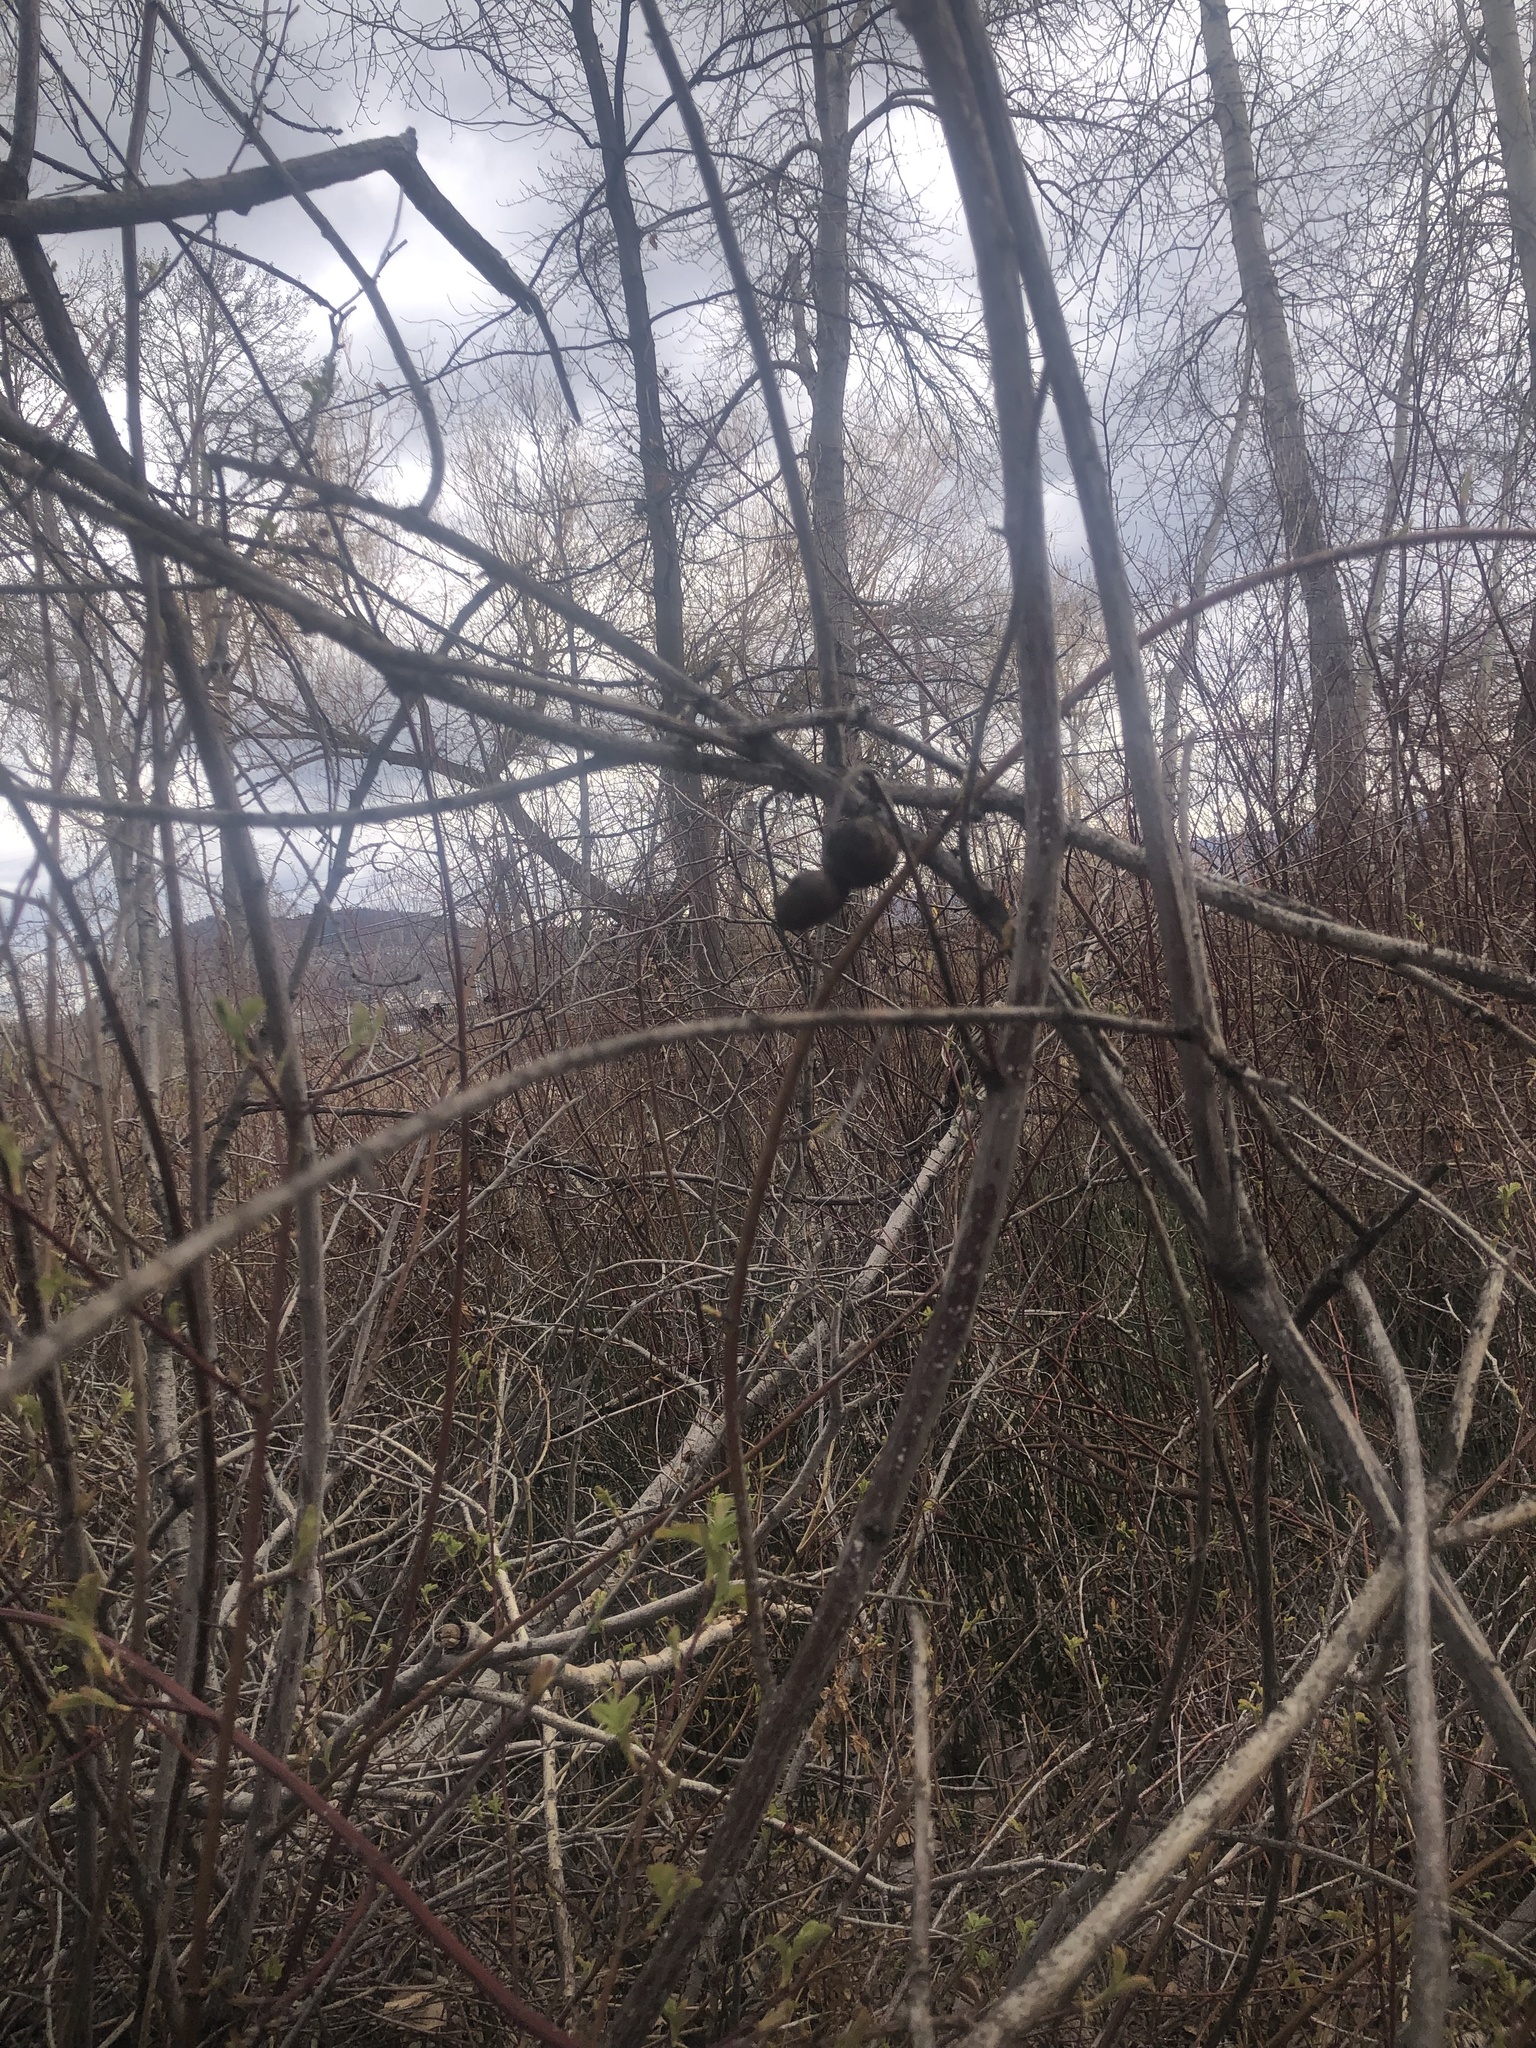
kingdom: Animalia
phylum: Arthropoda
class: Insecta
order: Hymenoptera
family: Cynipidae
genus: Diplolepis
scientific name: Diplolepis variabilis
